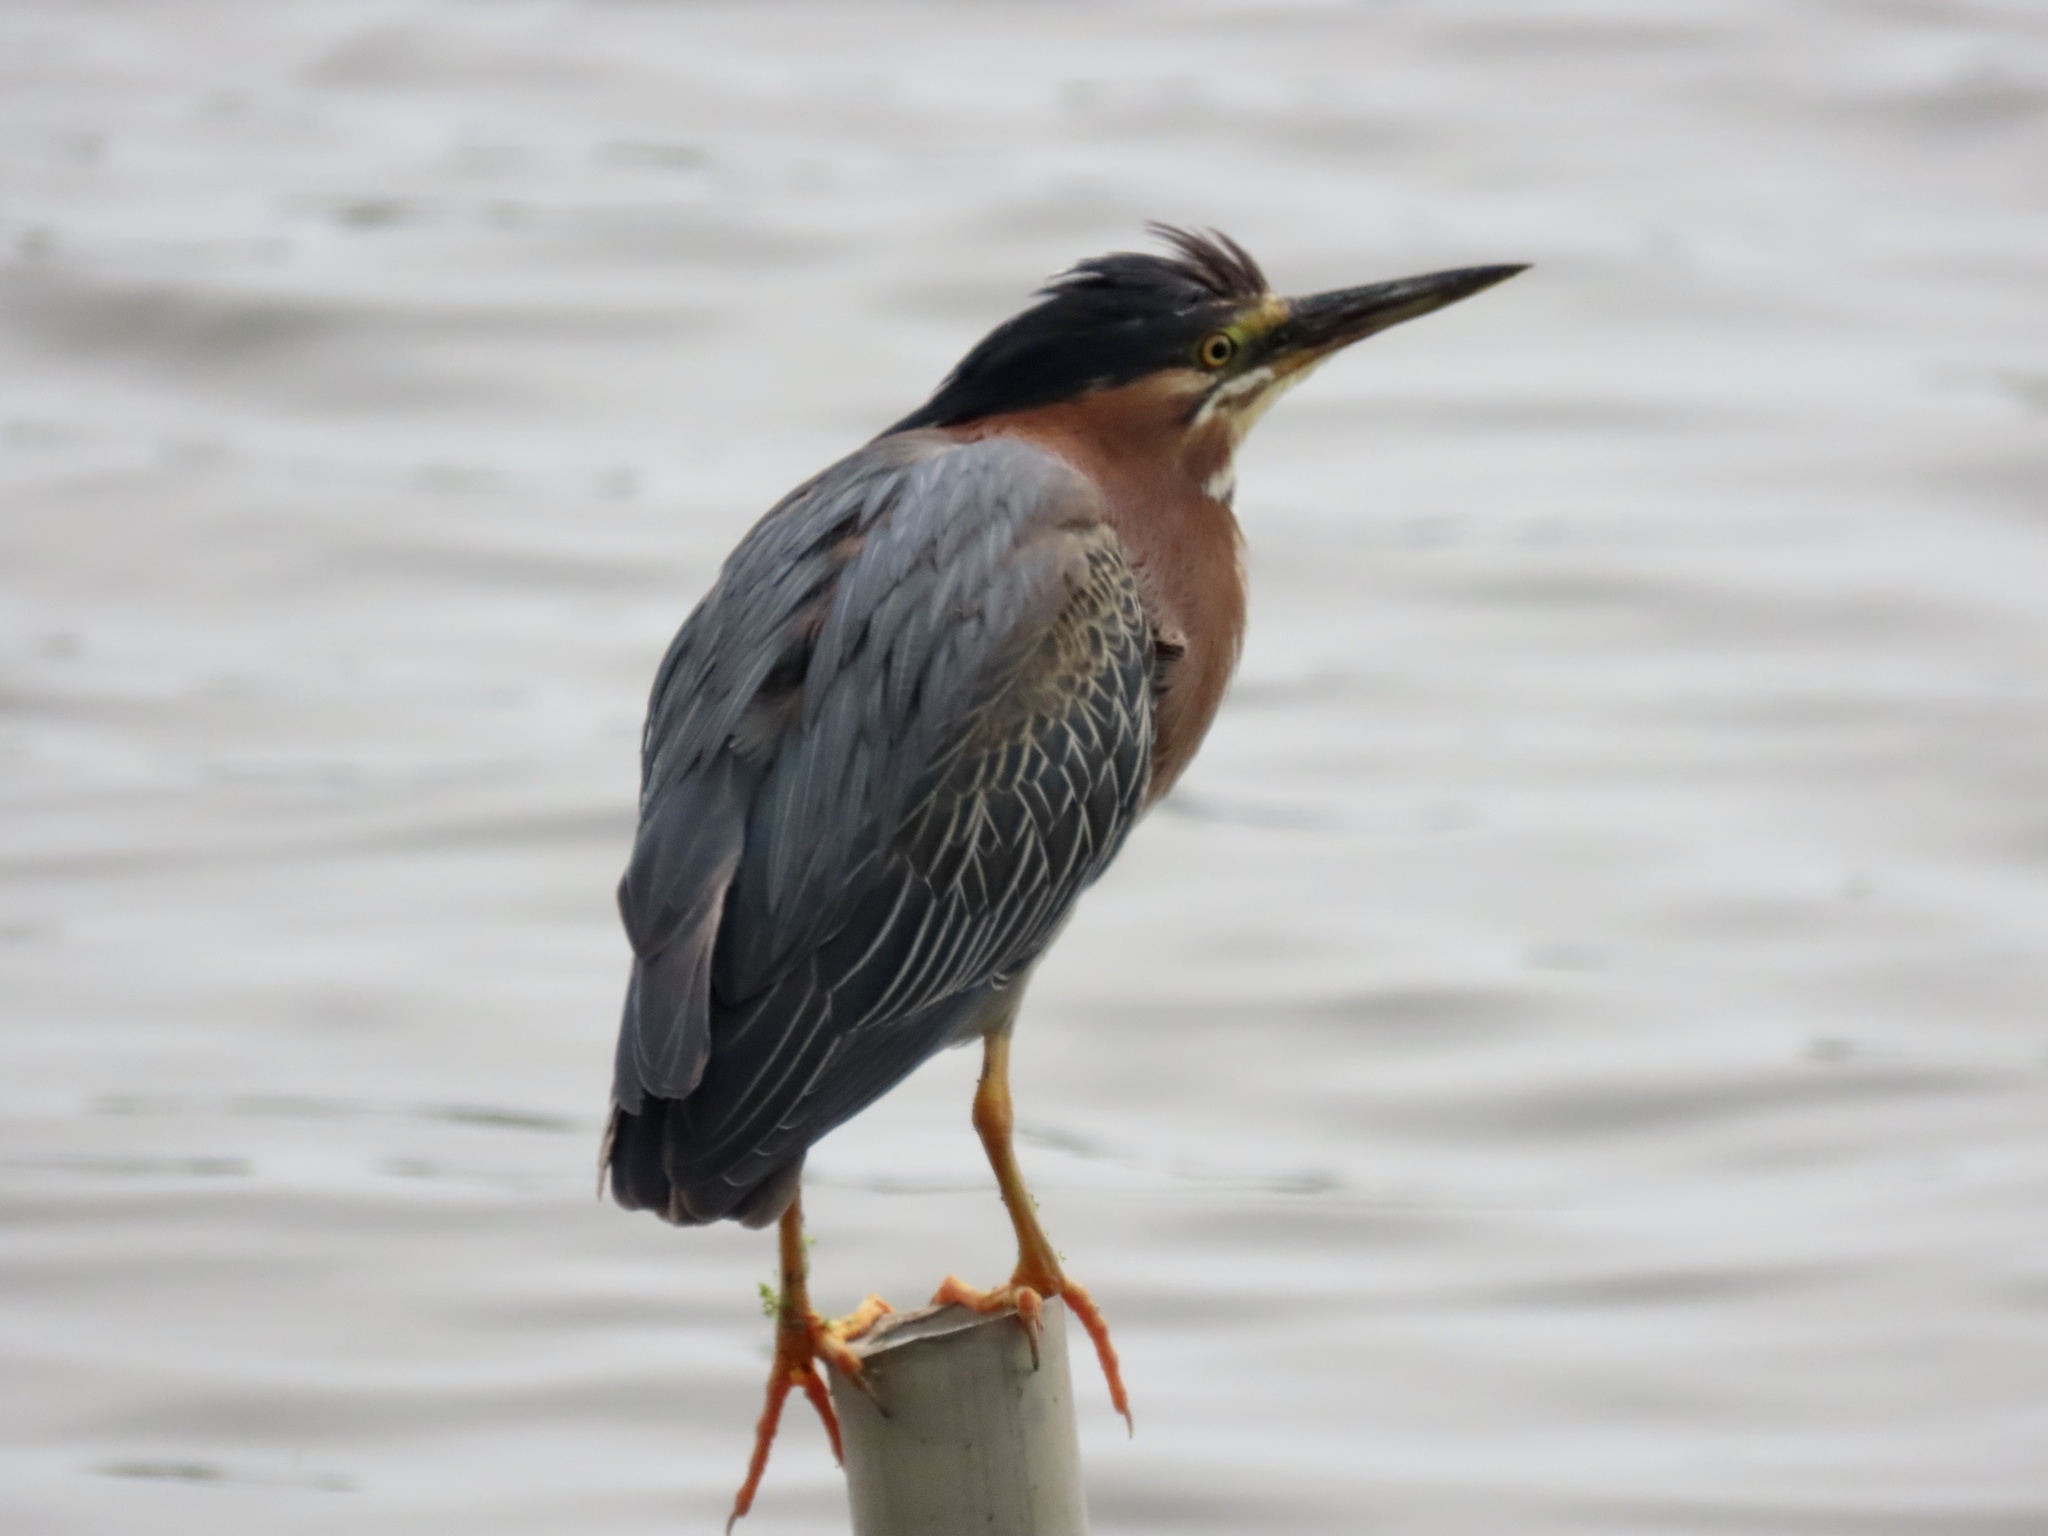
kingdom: Animalia
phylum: Chordata
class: Aves
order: Pelecaniformes
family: Ardeidae
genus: Butorides
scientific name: Butorides virescens
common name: Green heron
